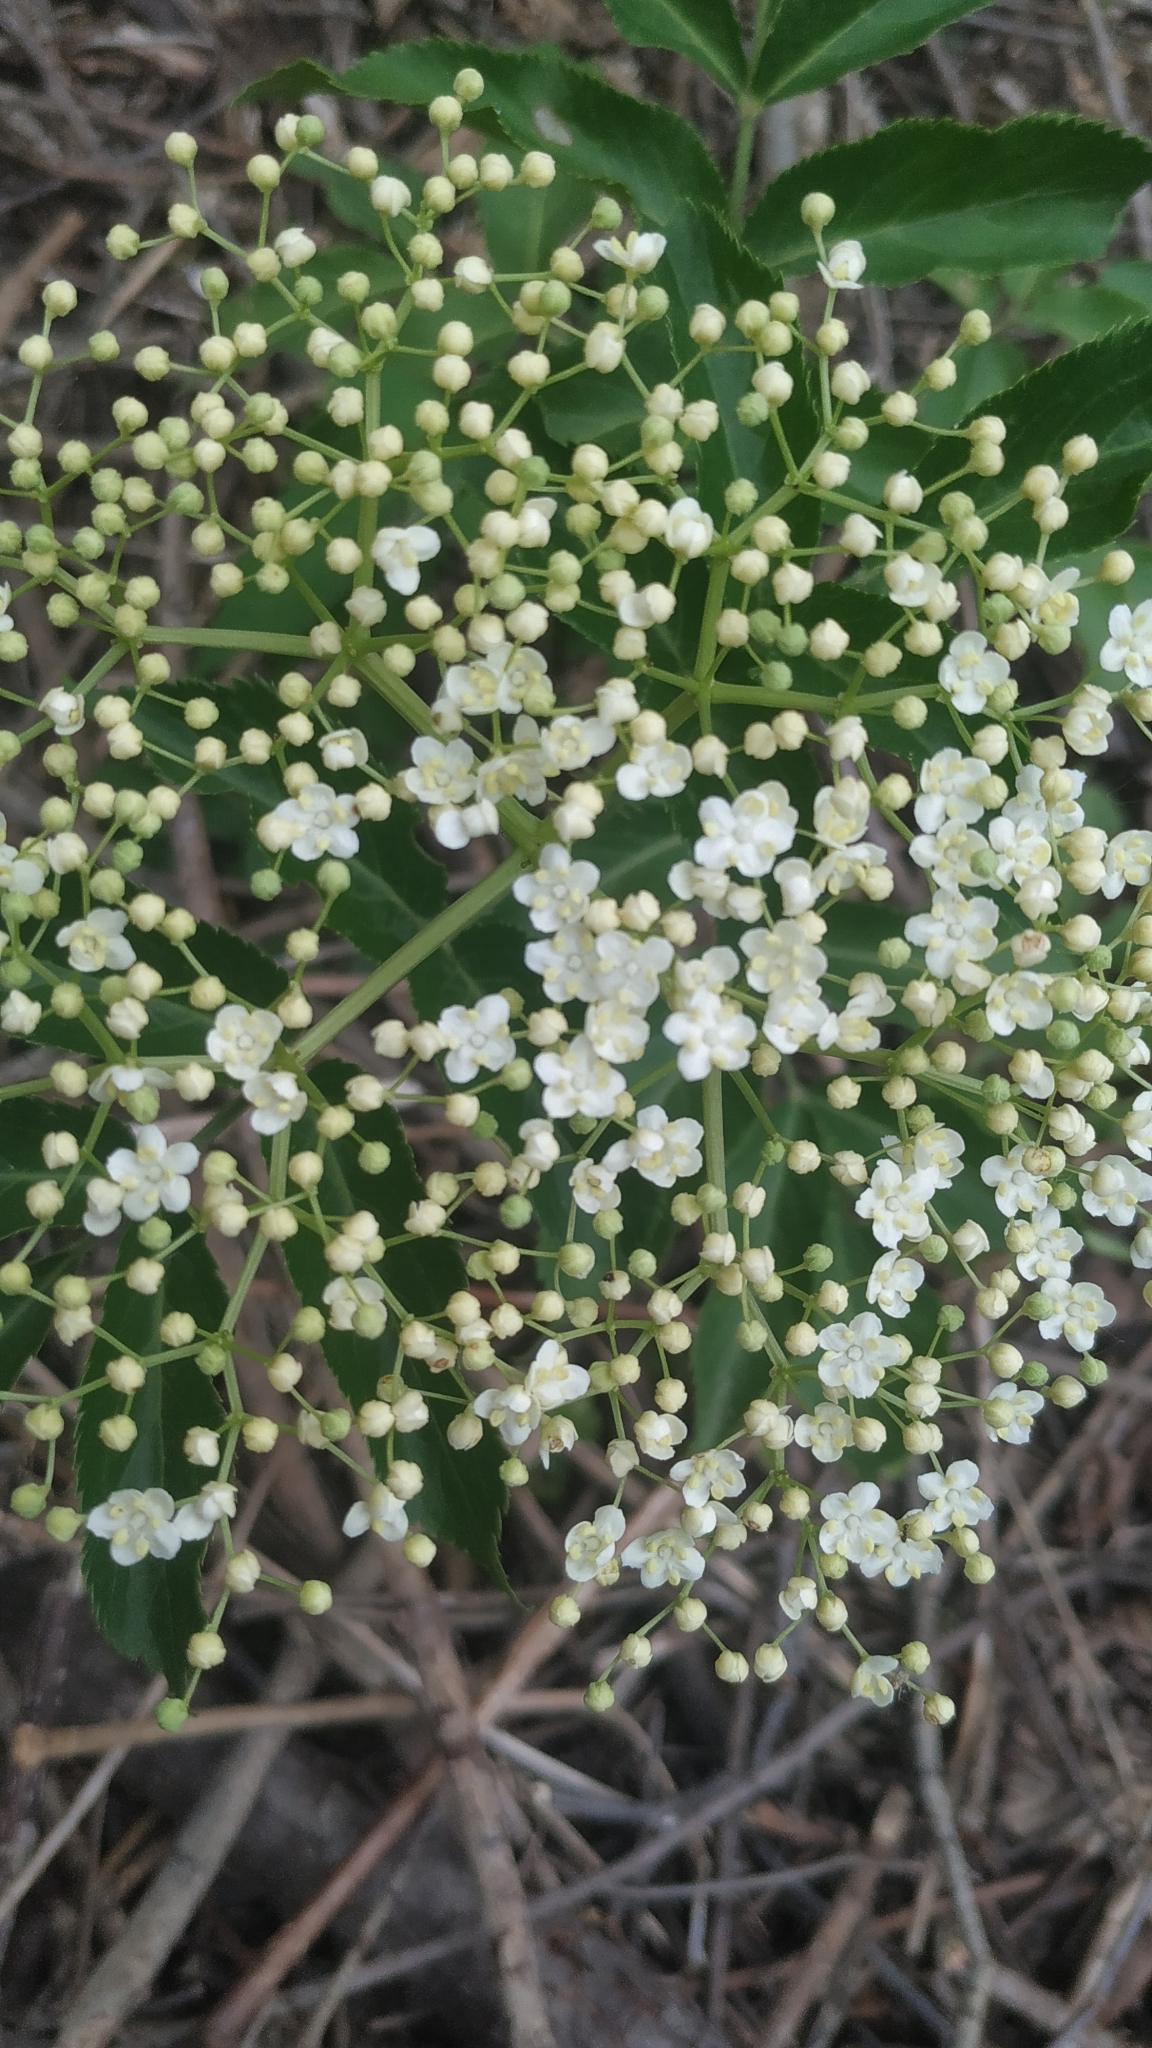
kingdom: Plantae
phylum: Tracheophyta
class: Magnoliopsida
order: Dipsacales
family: Viburnaceae
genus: Sambucus
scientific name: Sambucus nigra
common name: Elder
